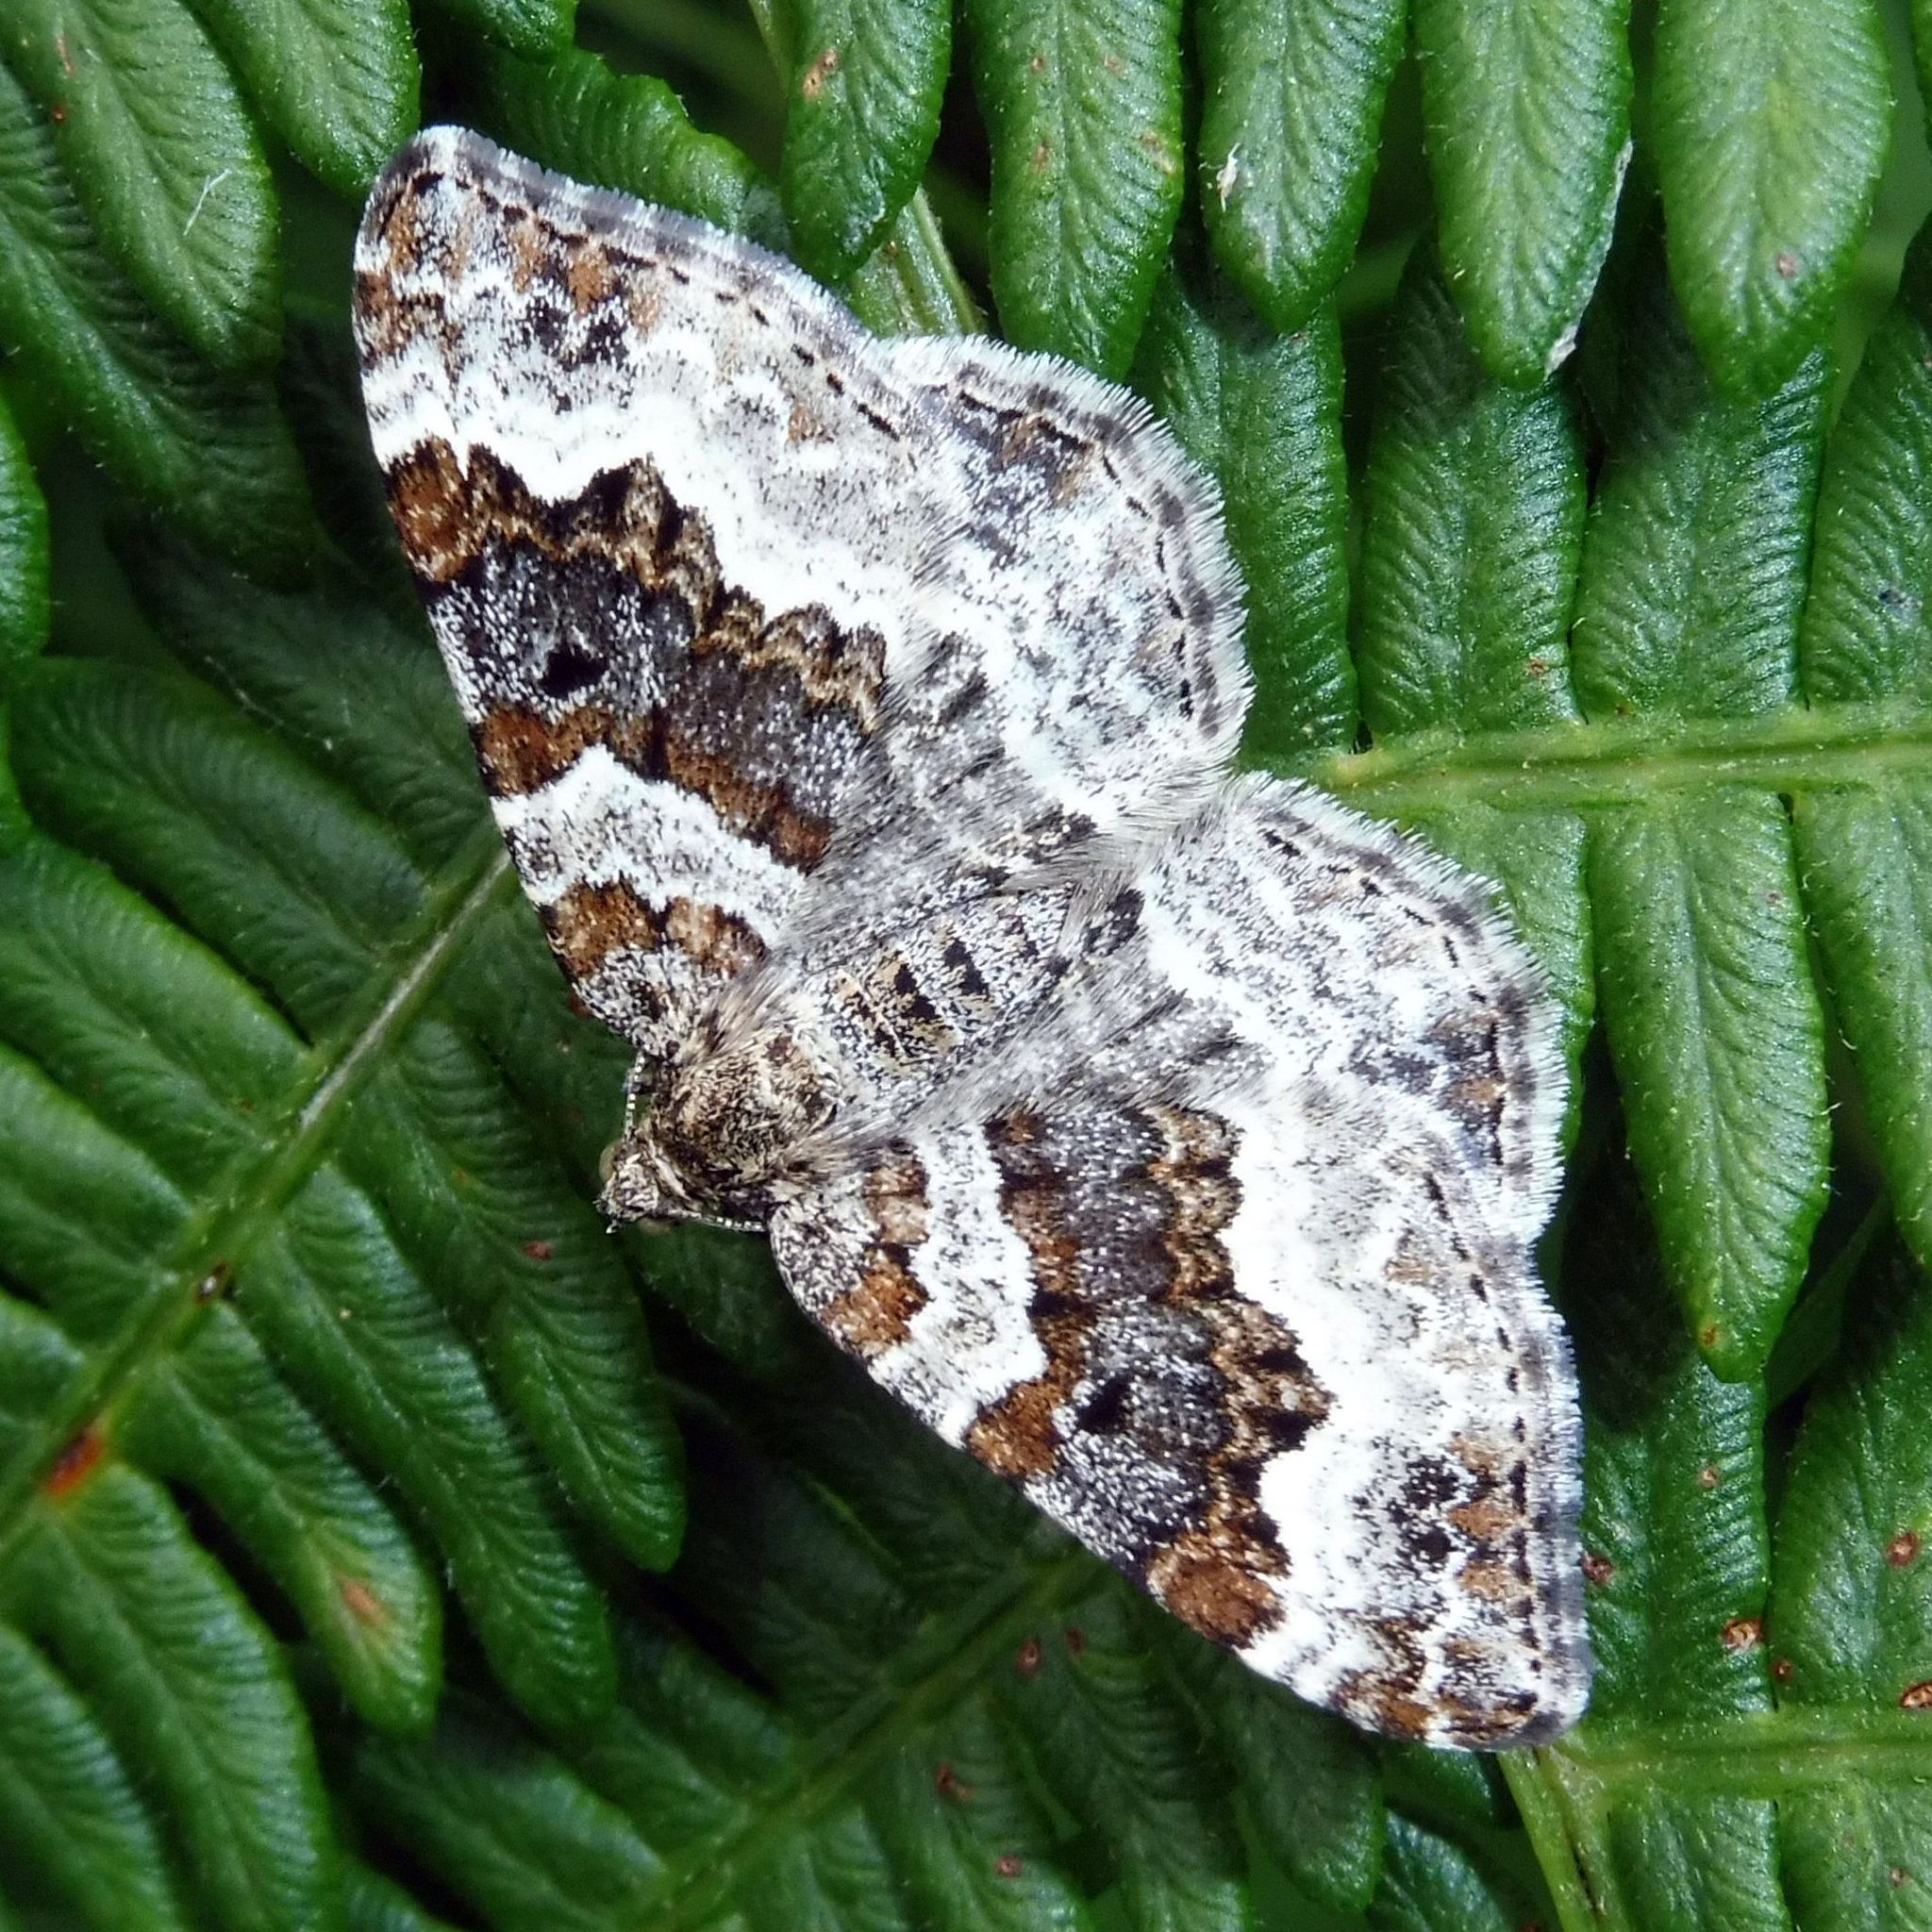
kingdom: Animalia
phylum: Arthropoda
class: Insecta
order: Lepidoptera
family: Geometridae
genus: Epirrhoe
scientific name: Epirrhoe alternata
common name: Common carpet
